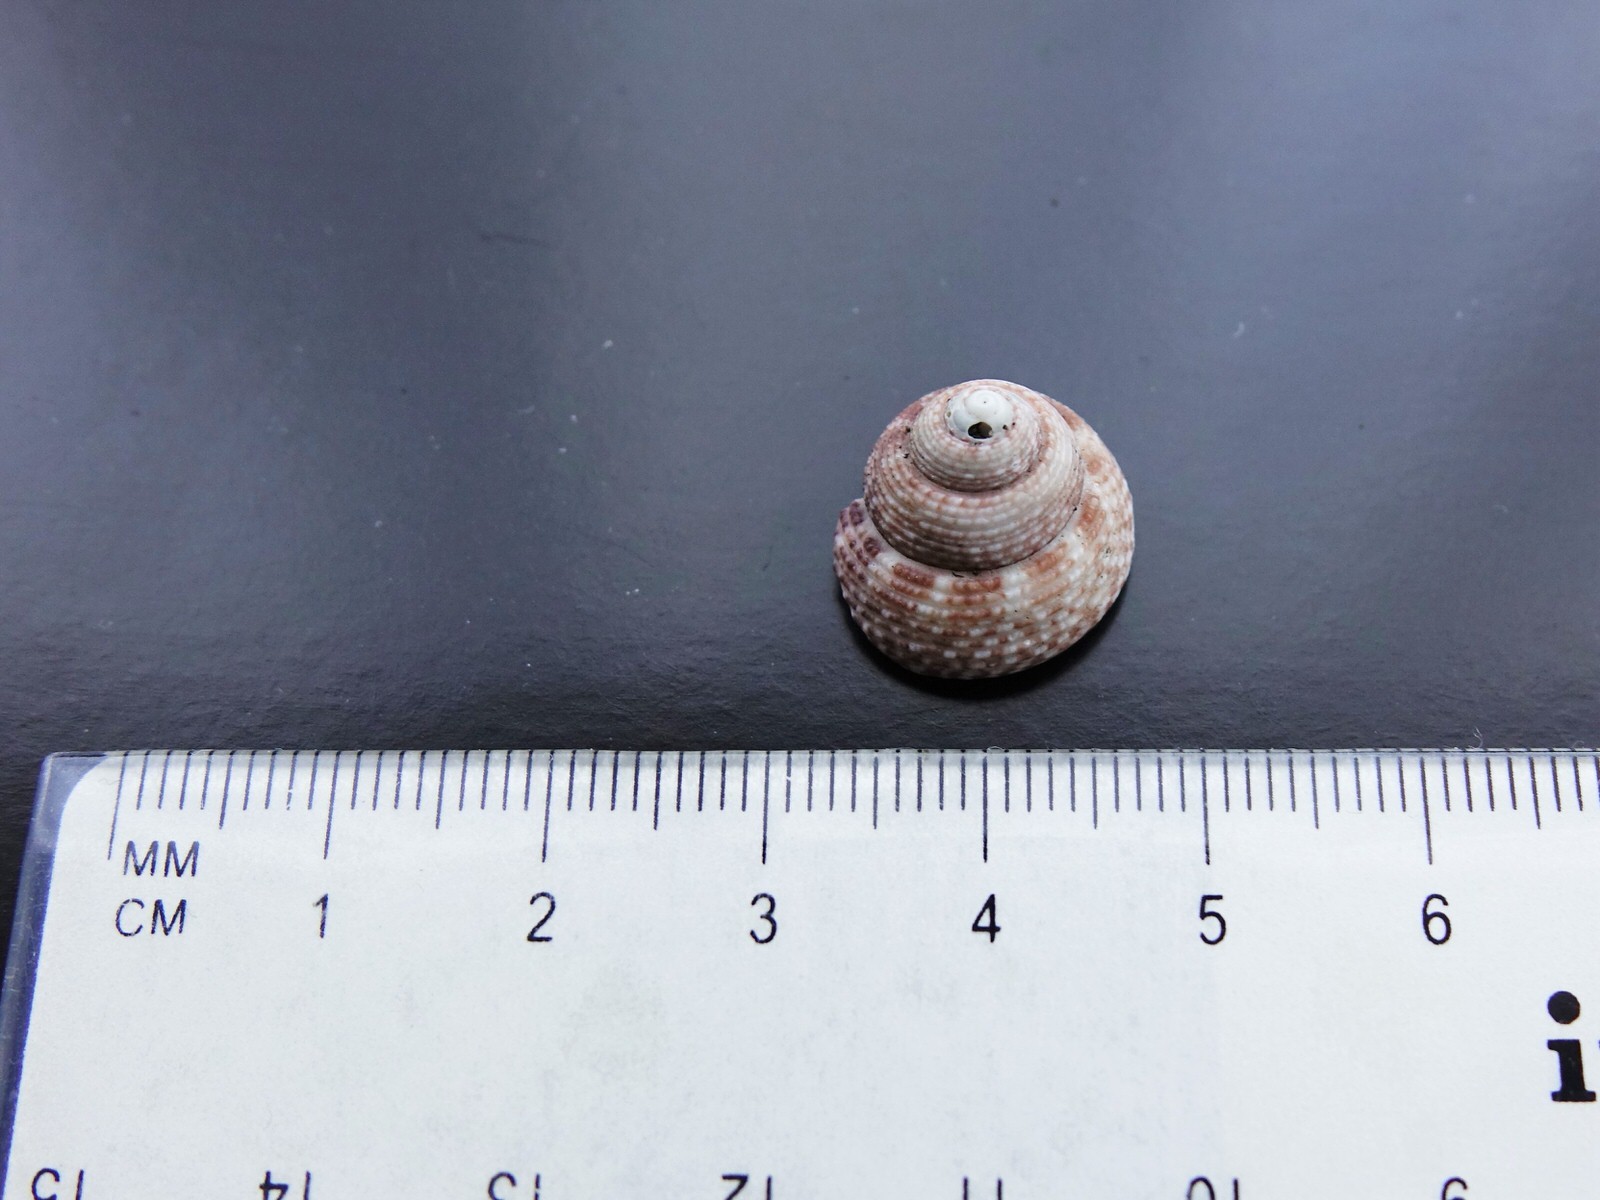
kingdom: Animalia
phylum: Mollusca
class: Gastropoda
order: Trochida
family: Trochidae
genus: Coelotrochus
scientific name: Coelotrochus tiaratus
